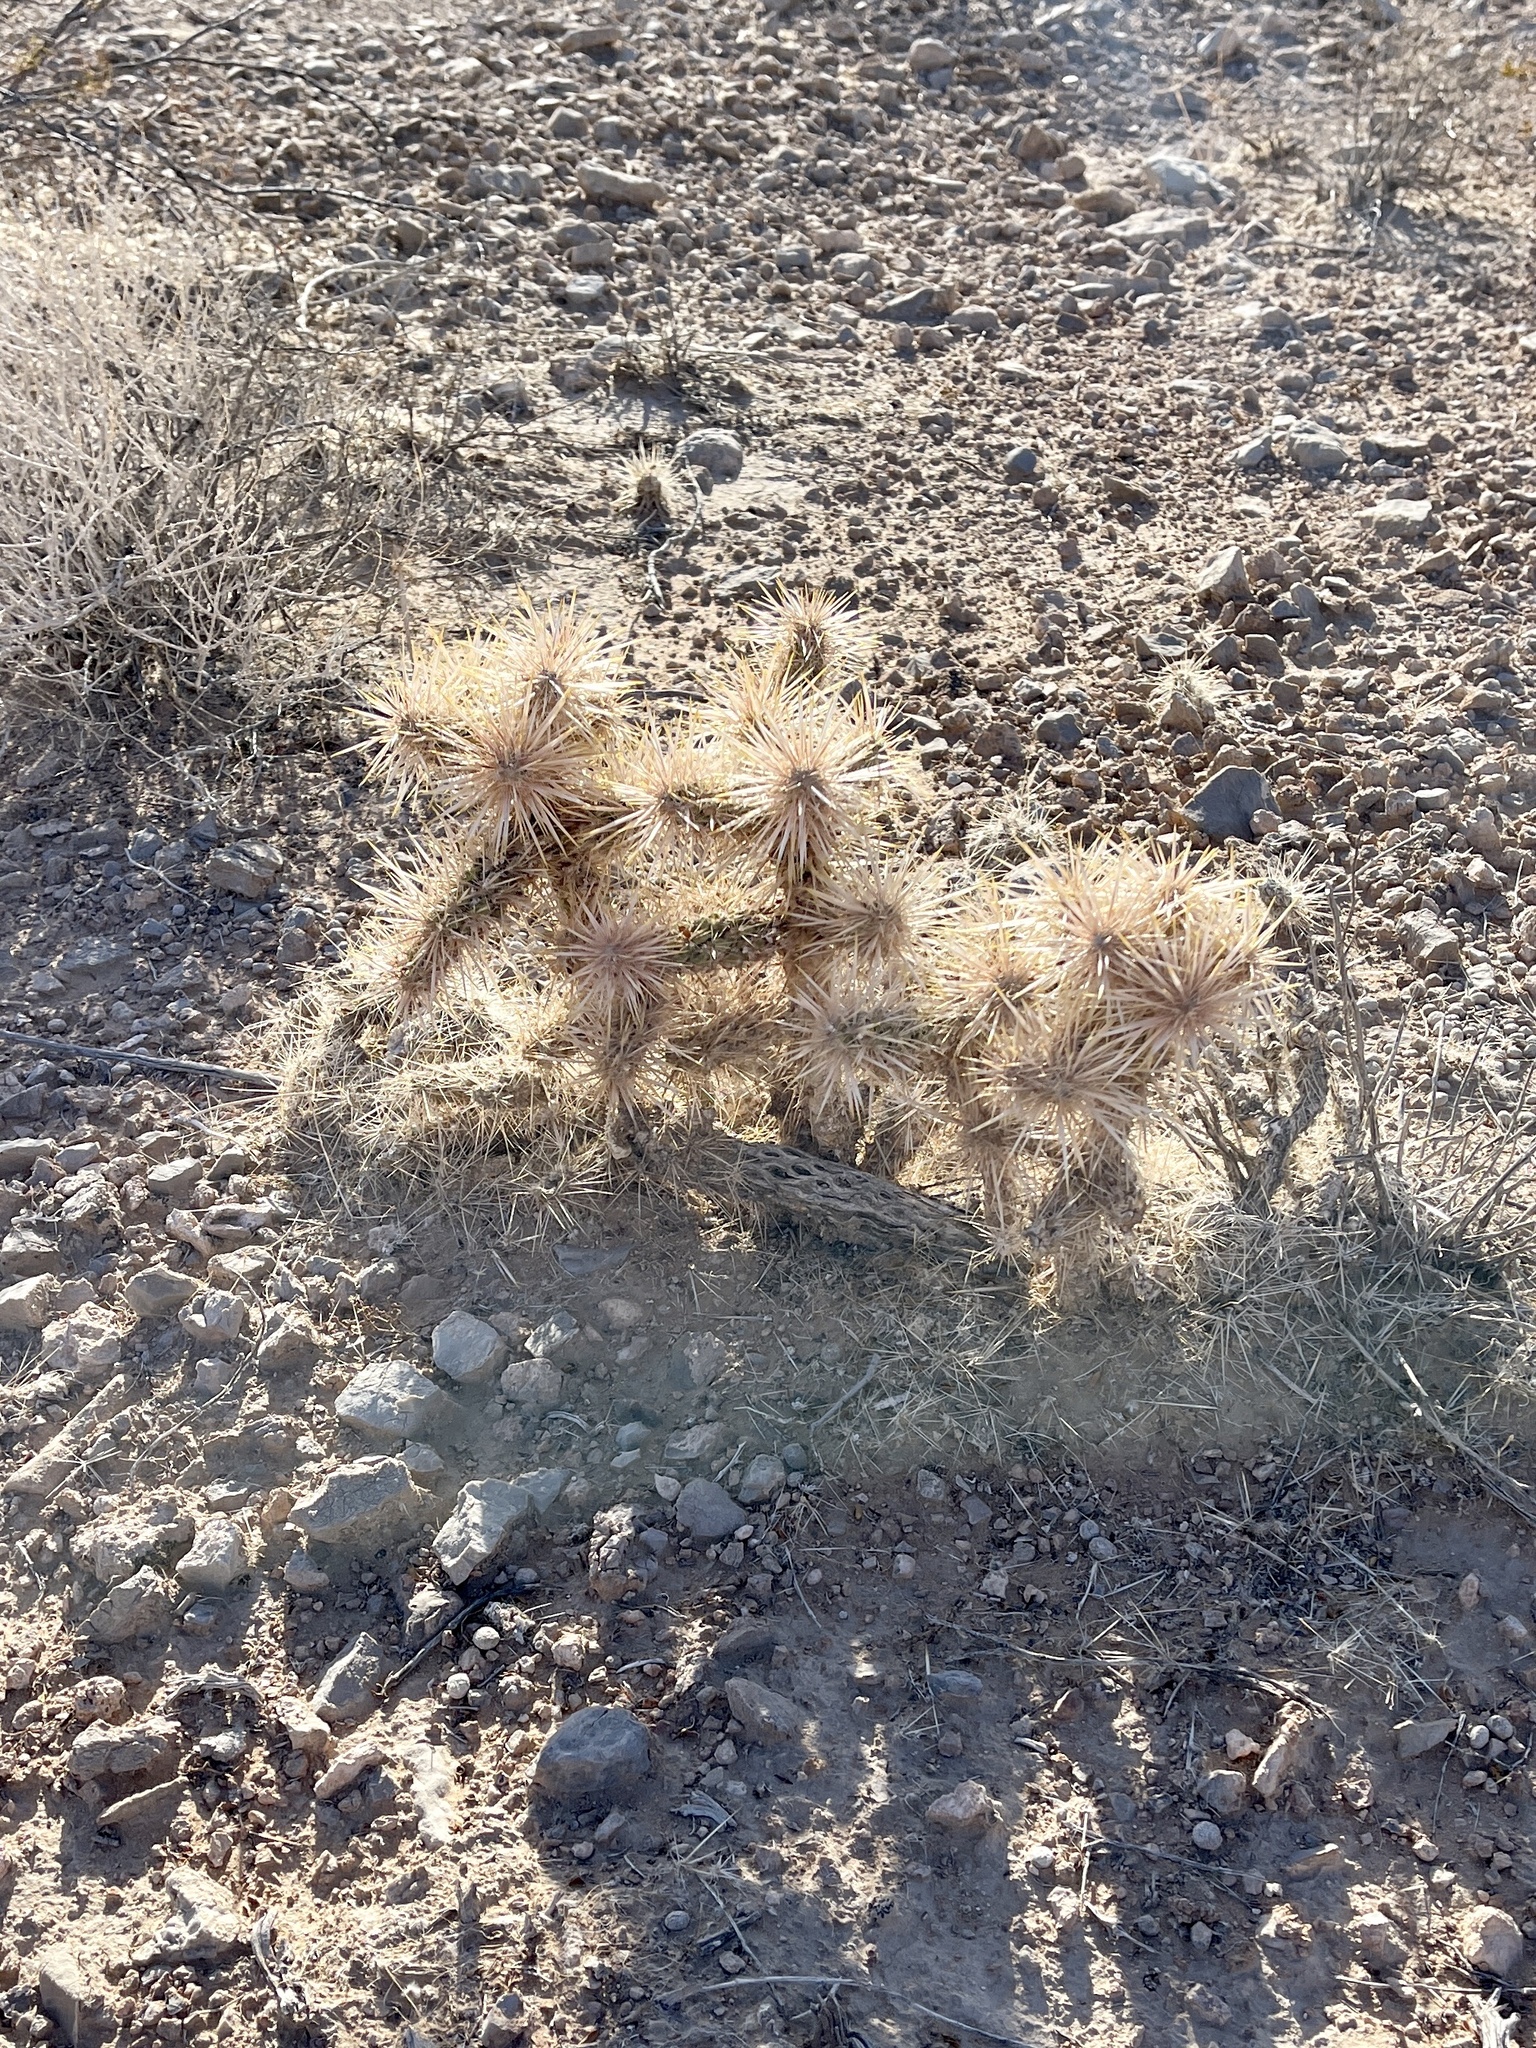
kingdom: Plantae
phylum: Tracheophyta
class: Magnoliopsida
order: Caryophyllales
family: Cactaceae
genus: Cylindropuntia
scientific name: Cylindropuntia echinocarpa
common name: Ground cholla
